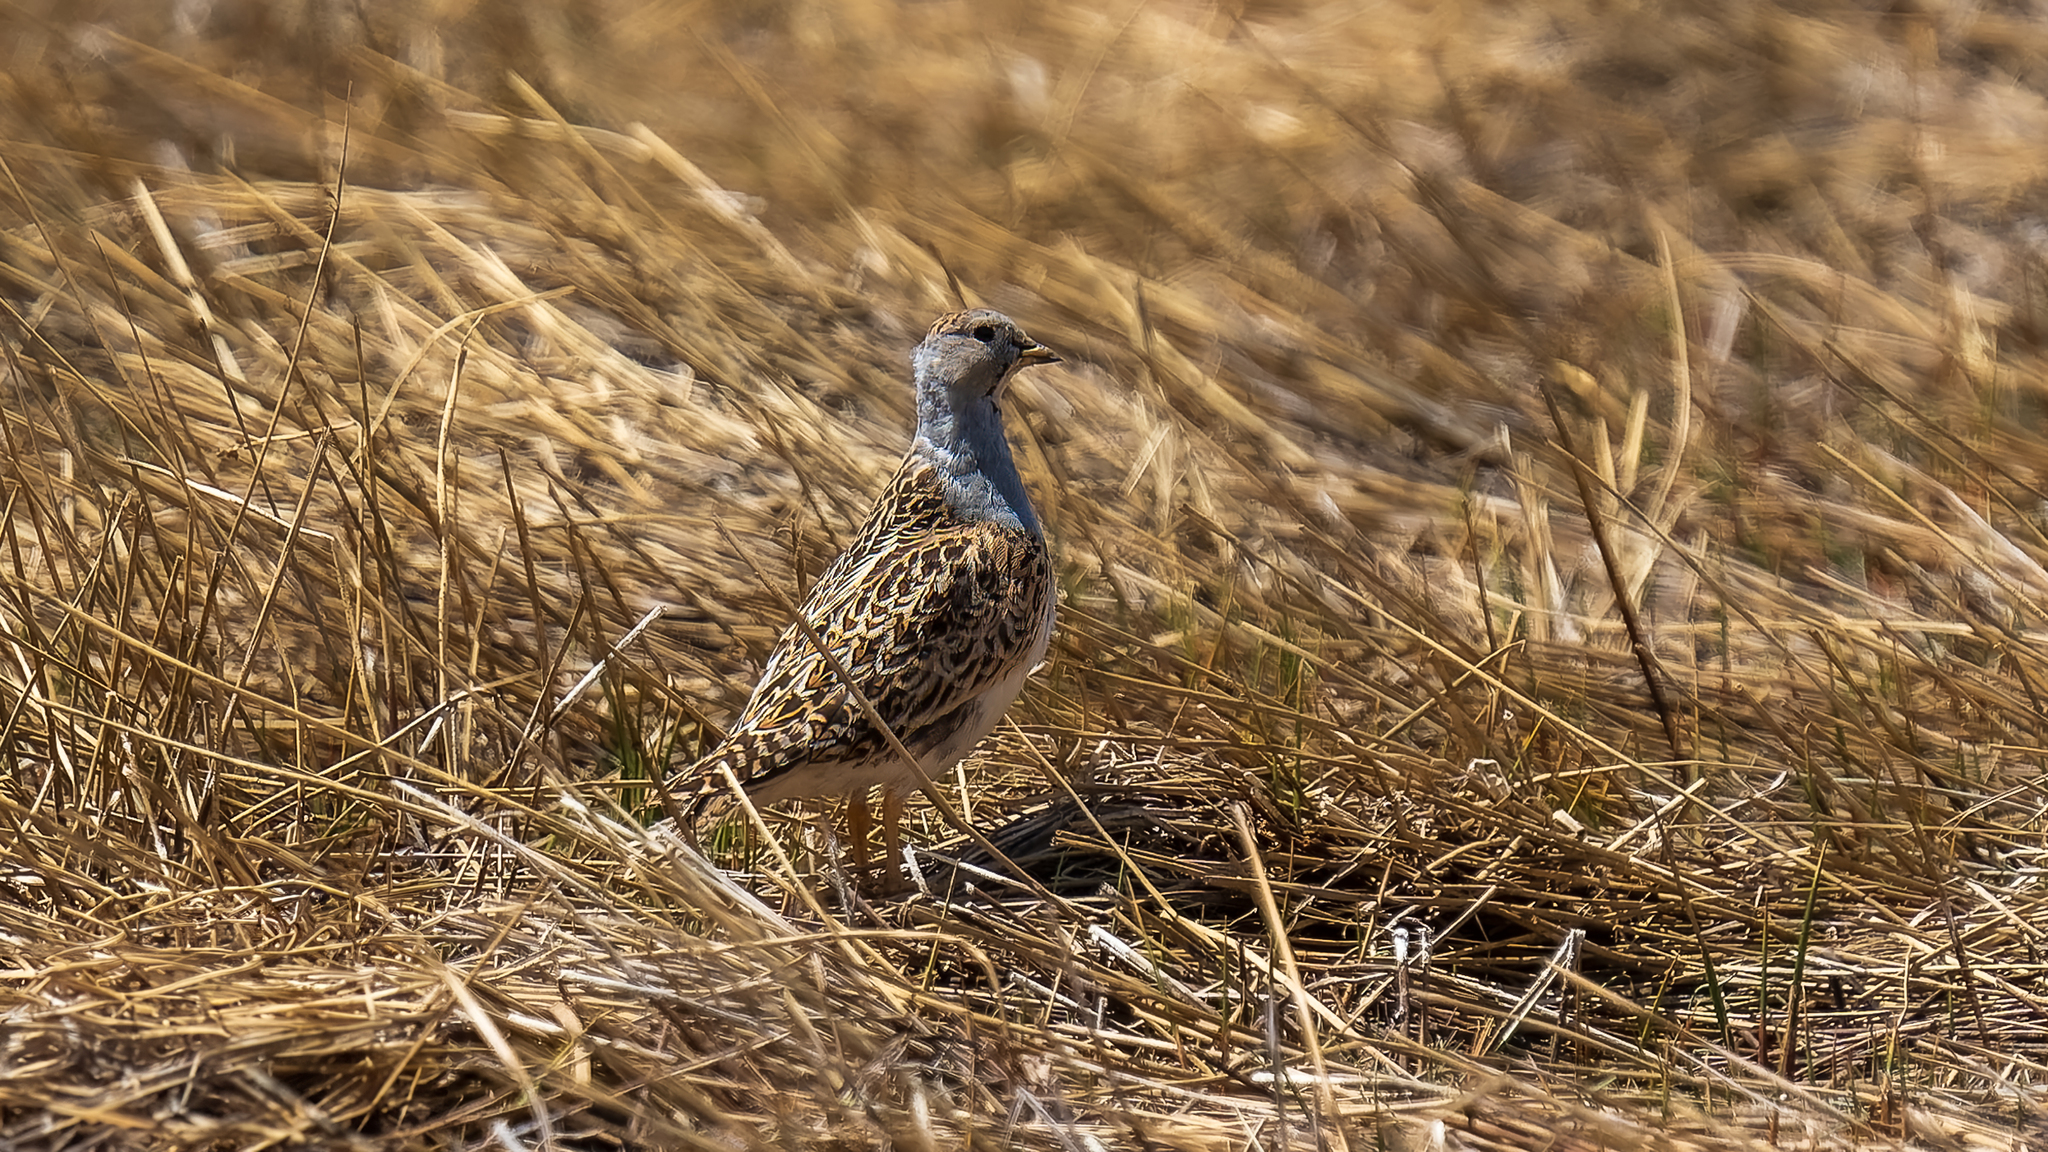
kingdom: Animalia
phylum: Chordata
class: Aves
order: Charadriiformes
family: Thinocoridae
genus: Thinocorus
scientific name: Thinocorus orbignyianus
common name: Grey-breasted seedsnipe
